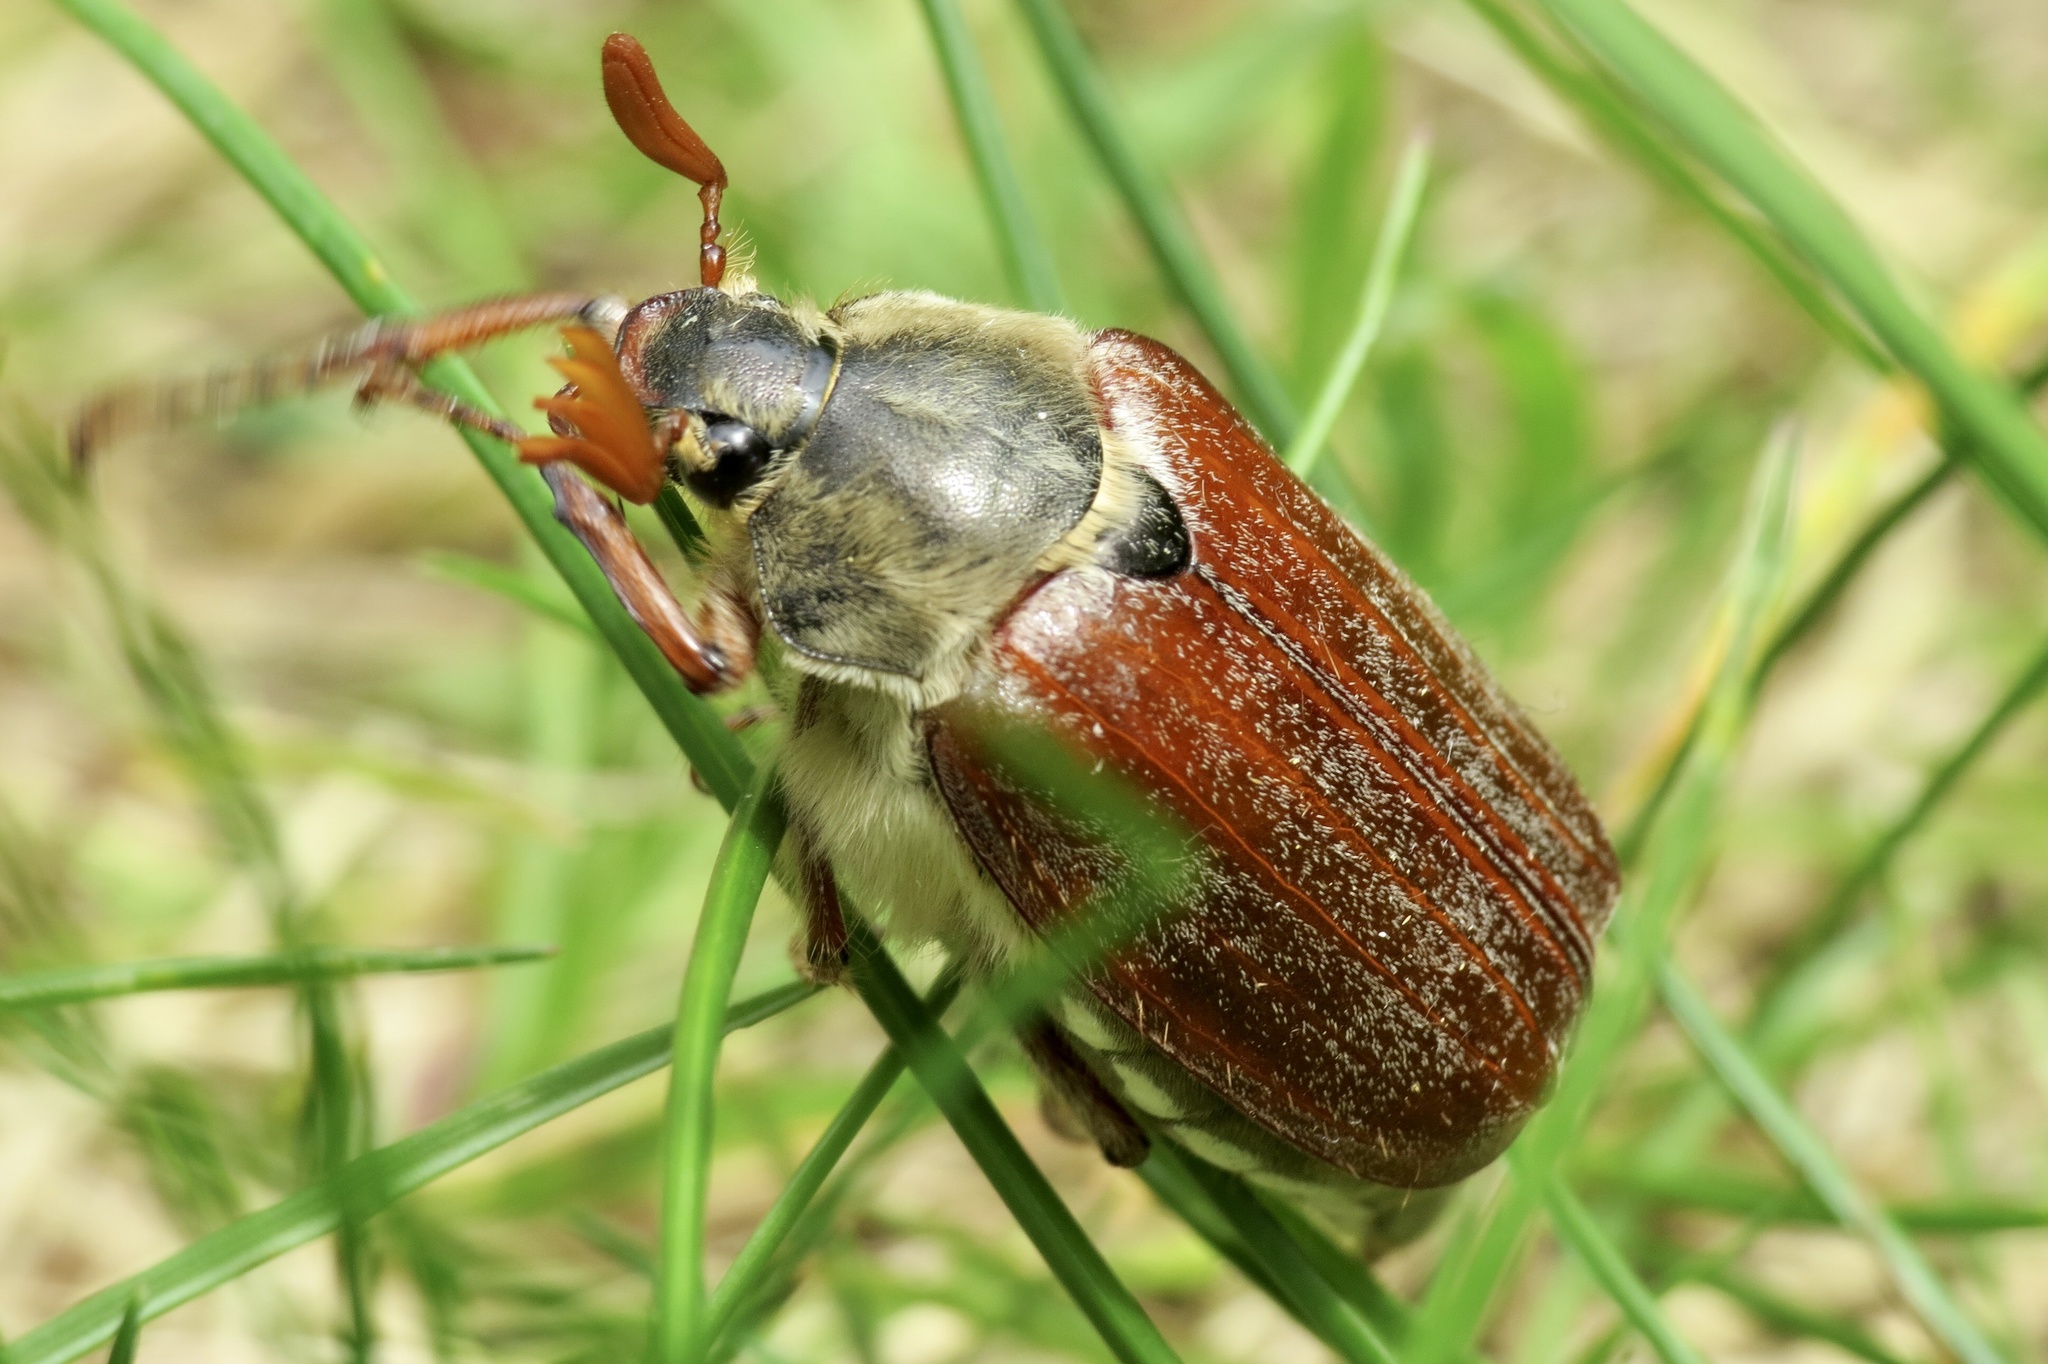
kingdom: Animalia
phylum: Arthropoda
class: Insecta
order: Coleoptera
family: Scarabaeidae
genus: Melolontha
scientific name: Melolontha melolontha
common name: Cockchafer maybeetle
